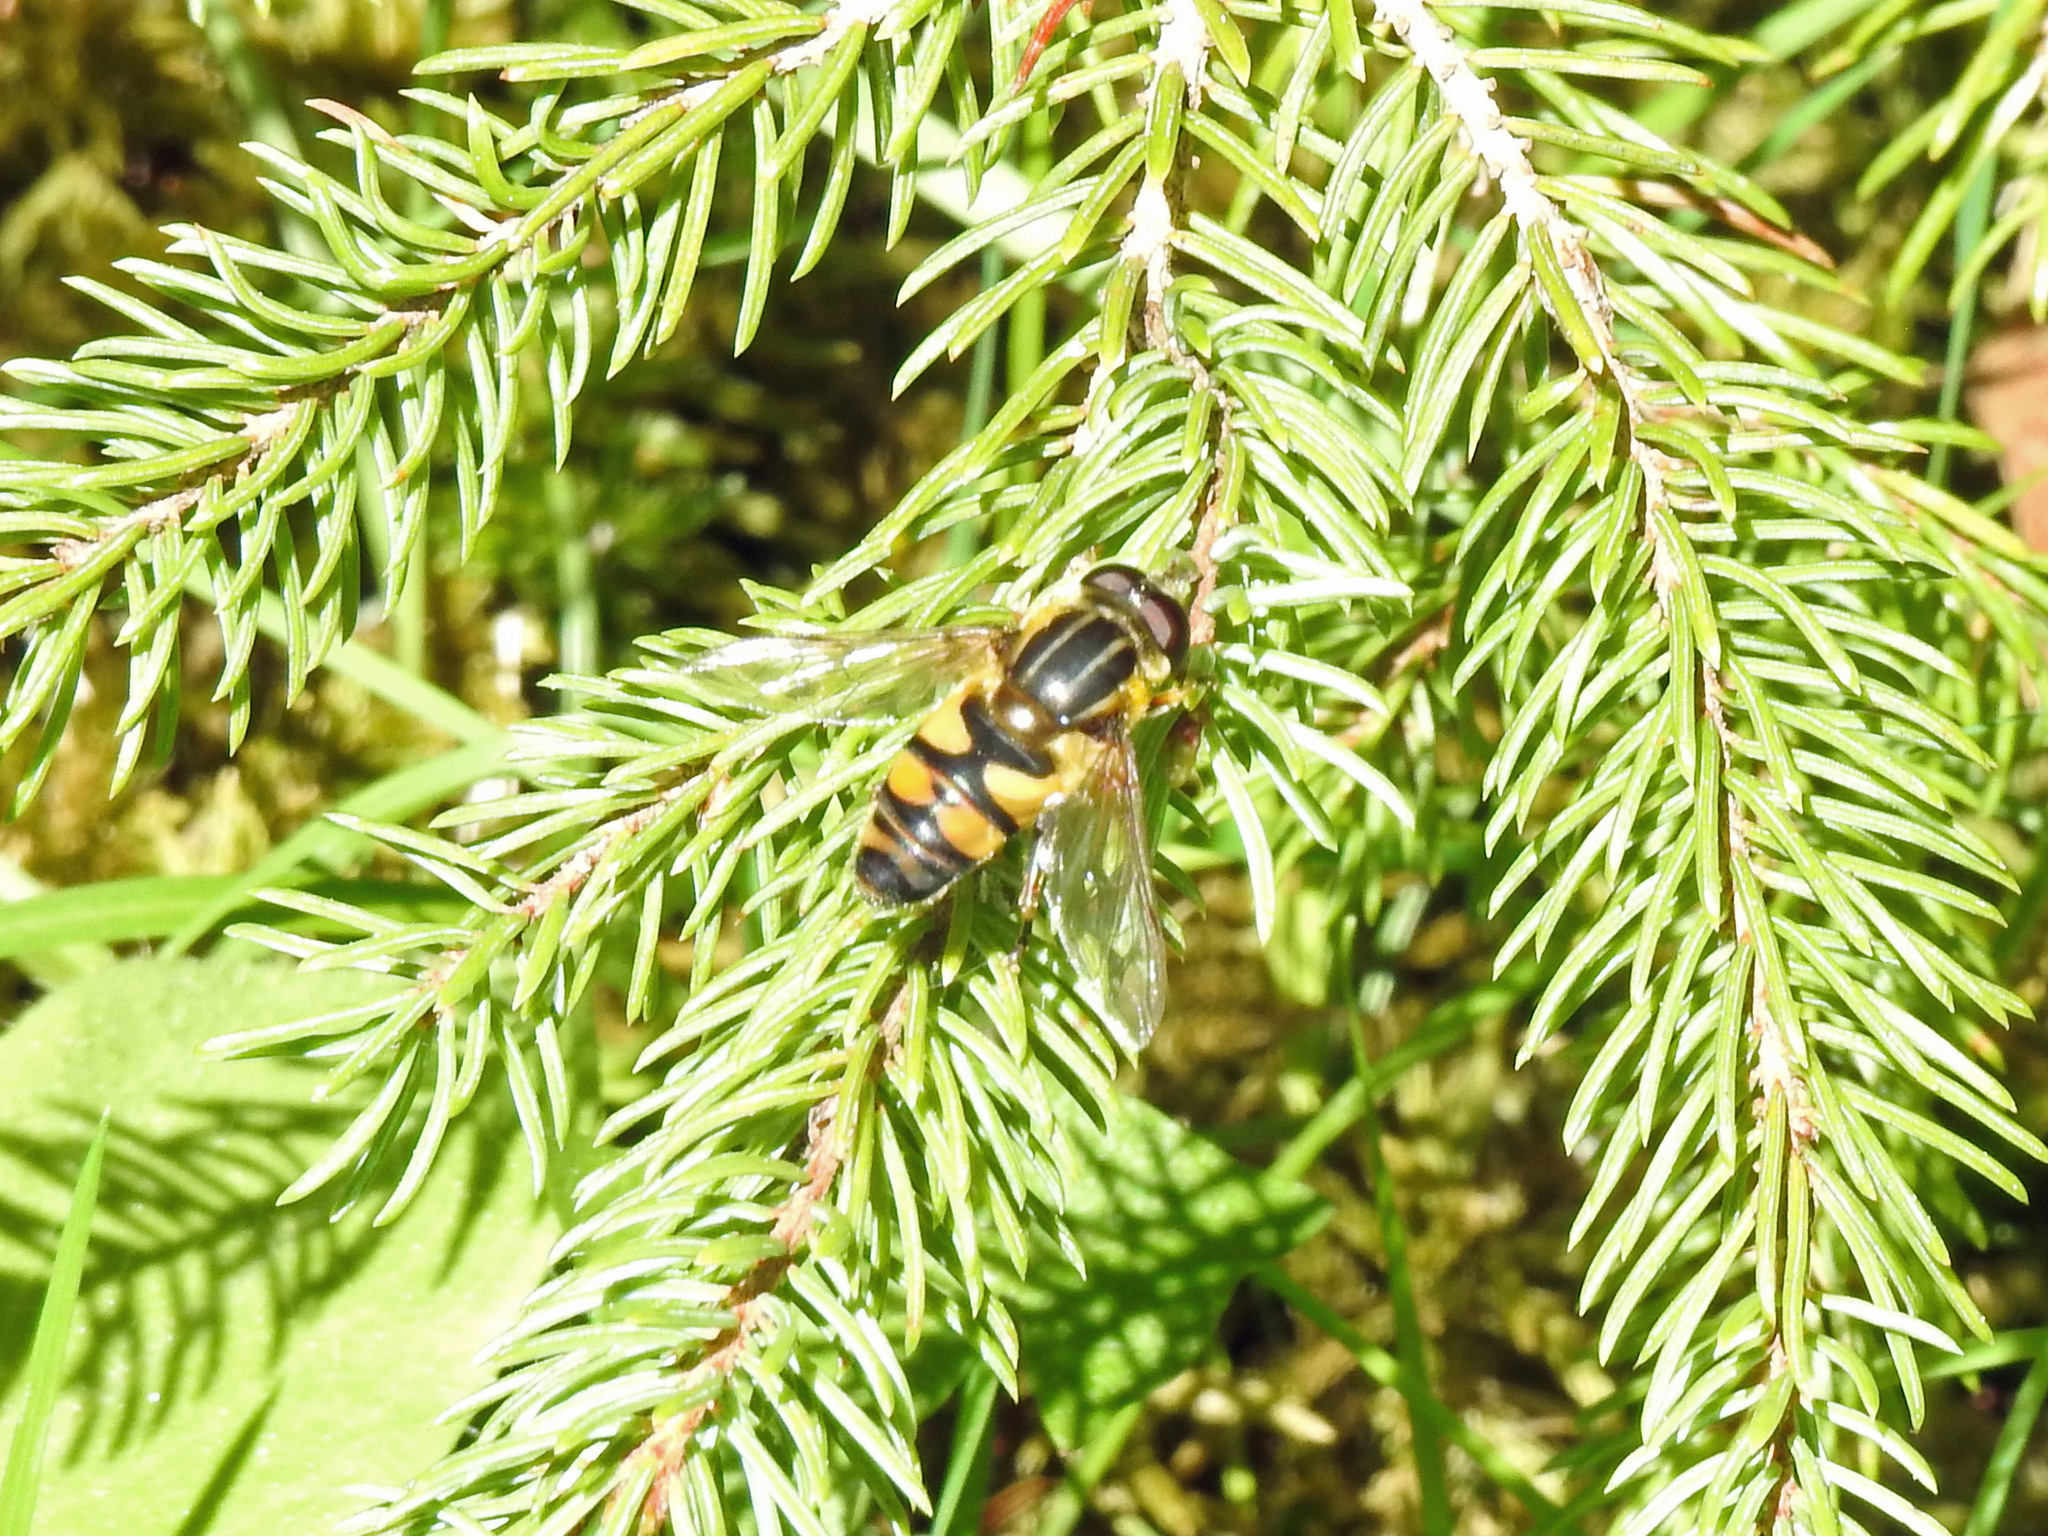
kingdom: Animalia
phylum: Arthropoda
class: Insecta
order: Diptera
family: Syrphidae
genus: Helophilus
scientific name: Helophilus fasciatus
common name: Narrow-headed marsh fly
